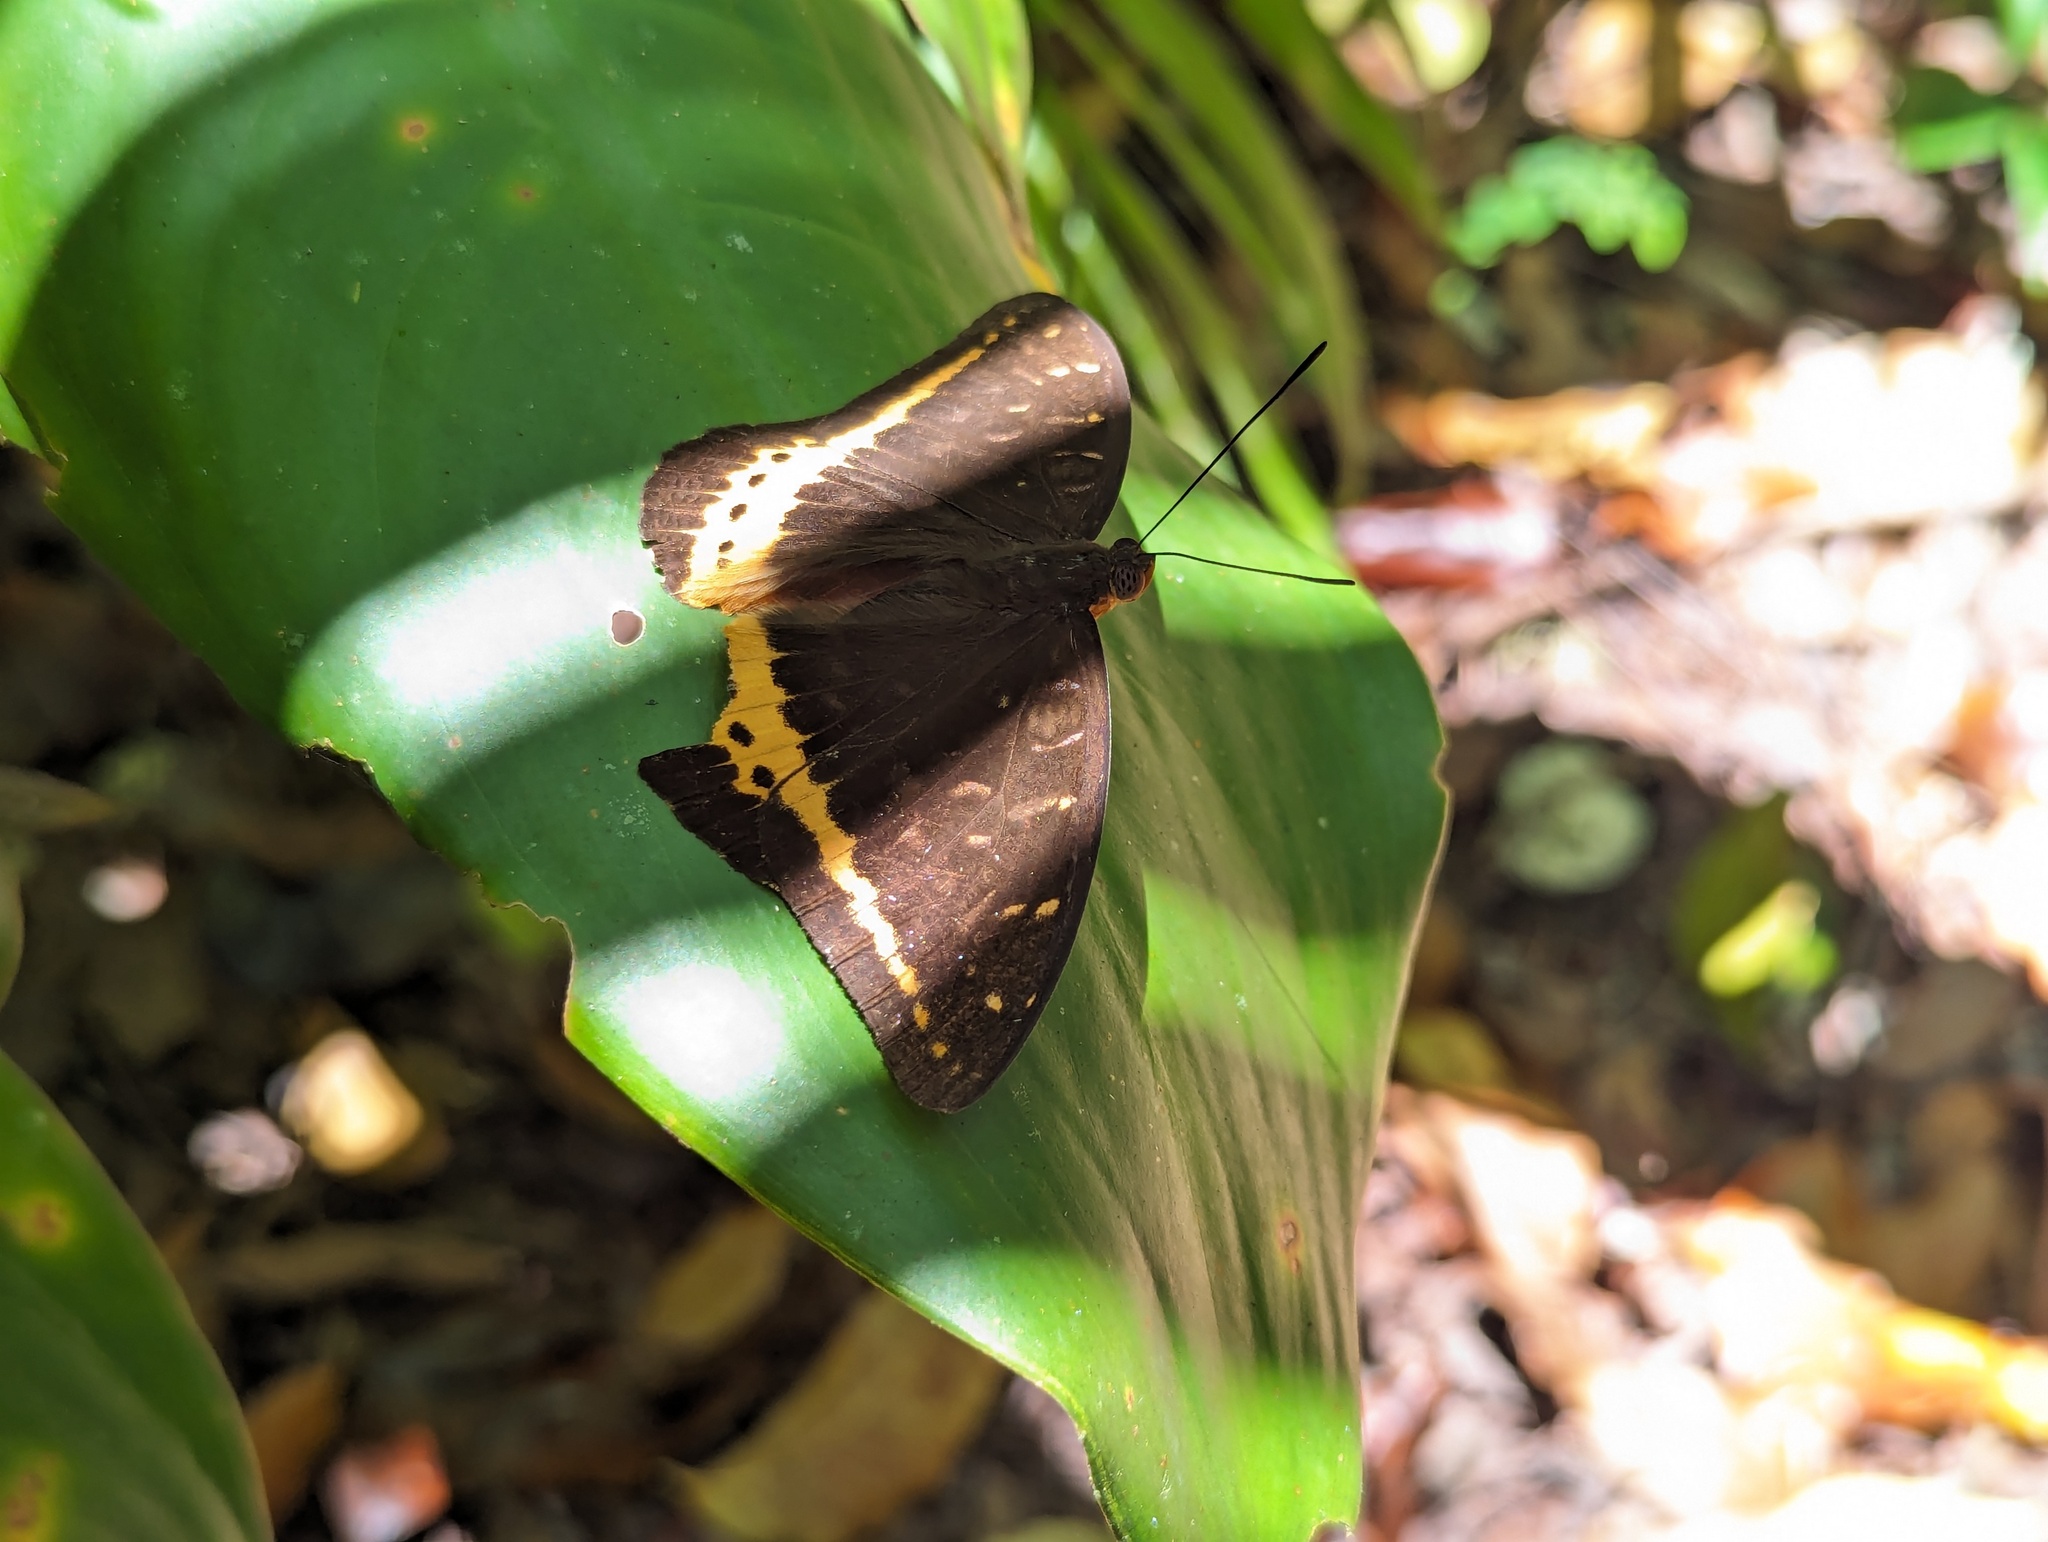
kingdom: Animalia
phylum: Arthropoda
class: Insecta
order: Lepidoptera
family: Nymphalidae
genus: Lexias
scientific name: Lexias panopus
